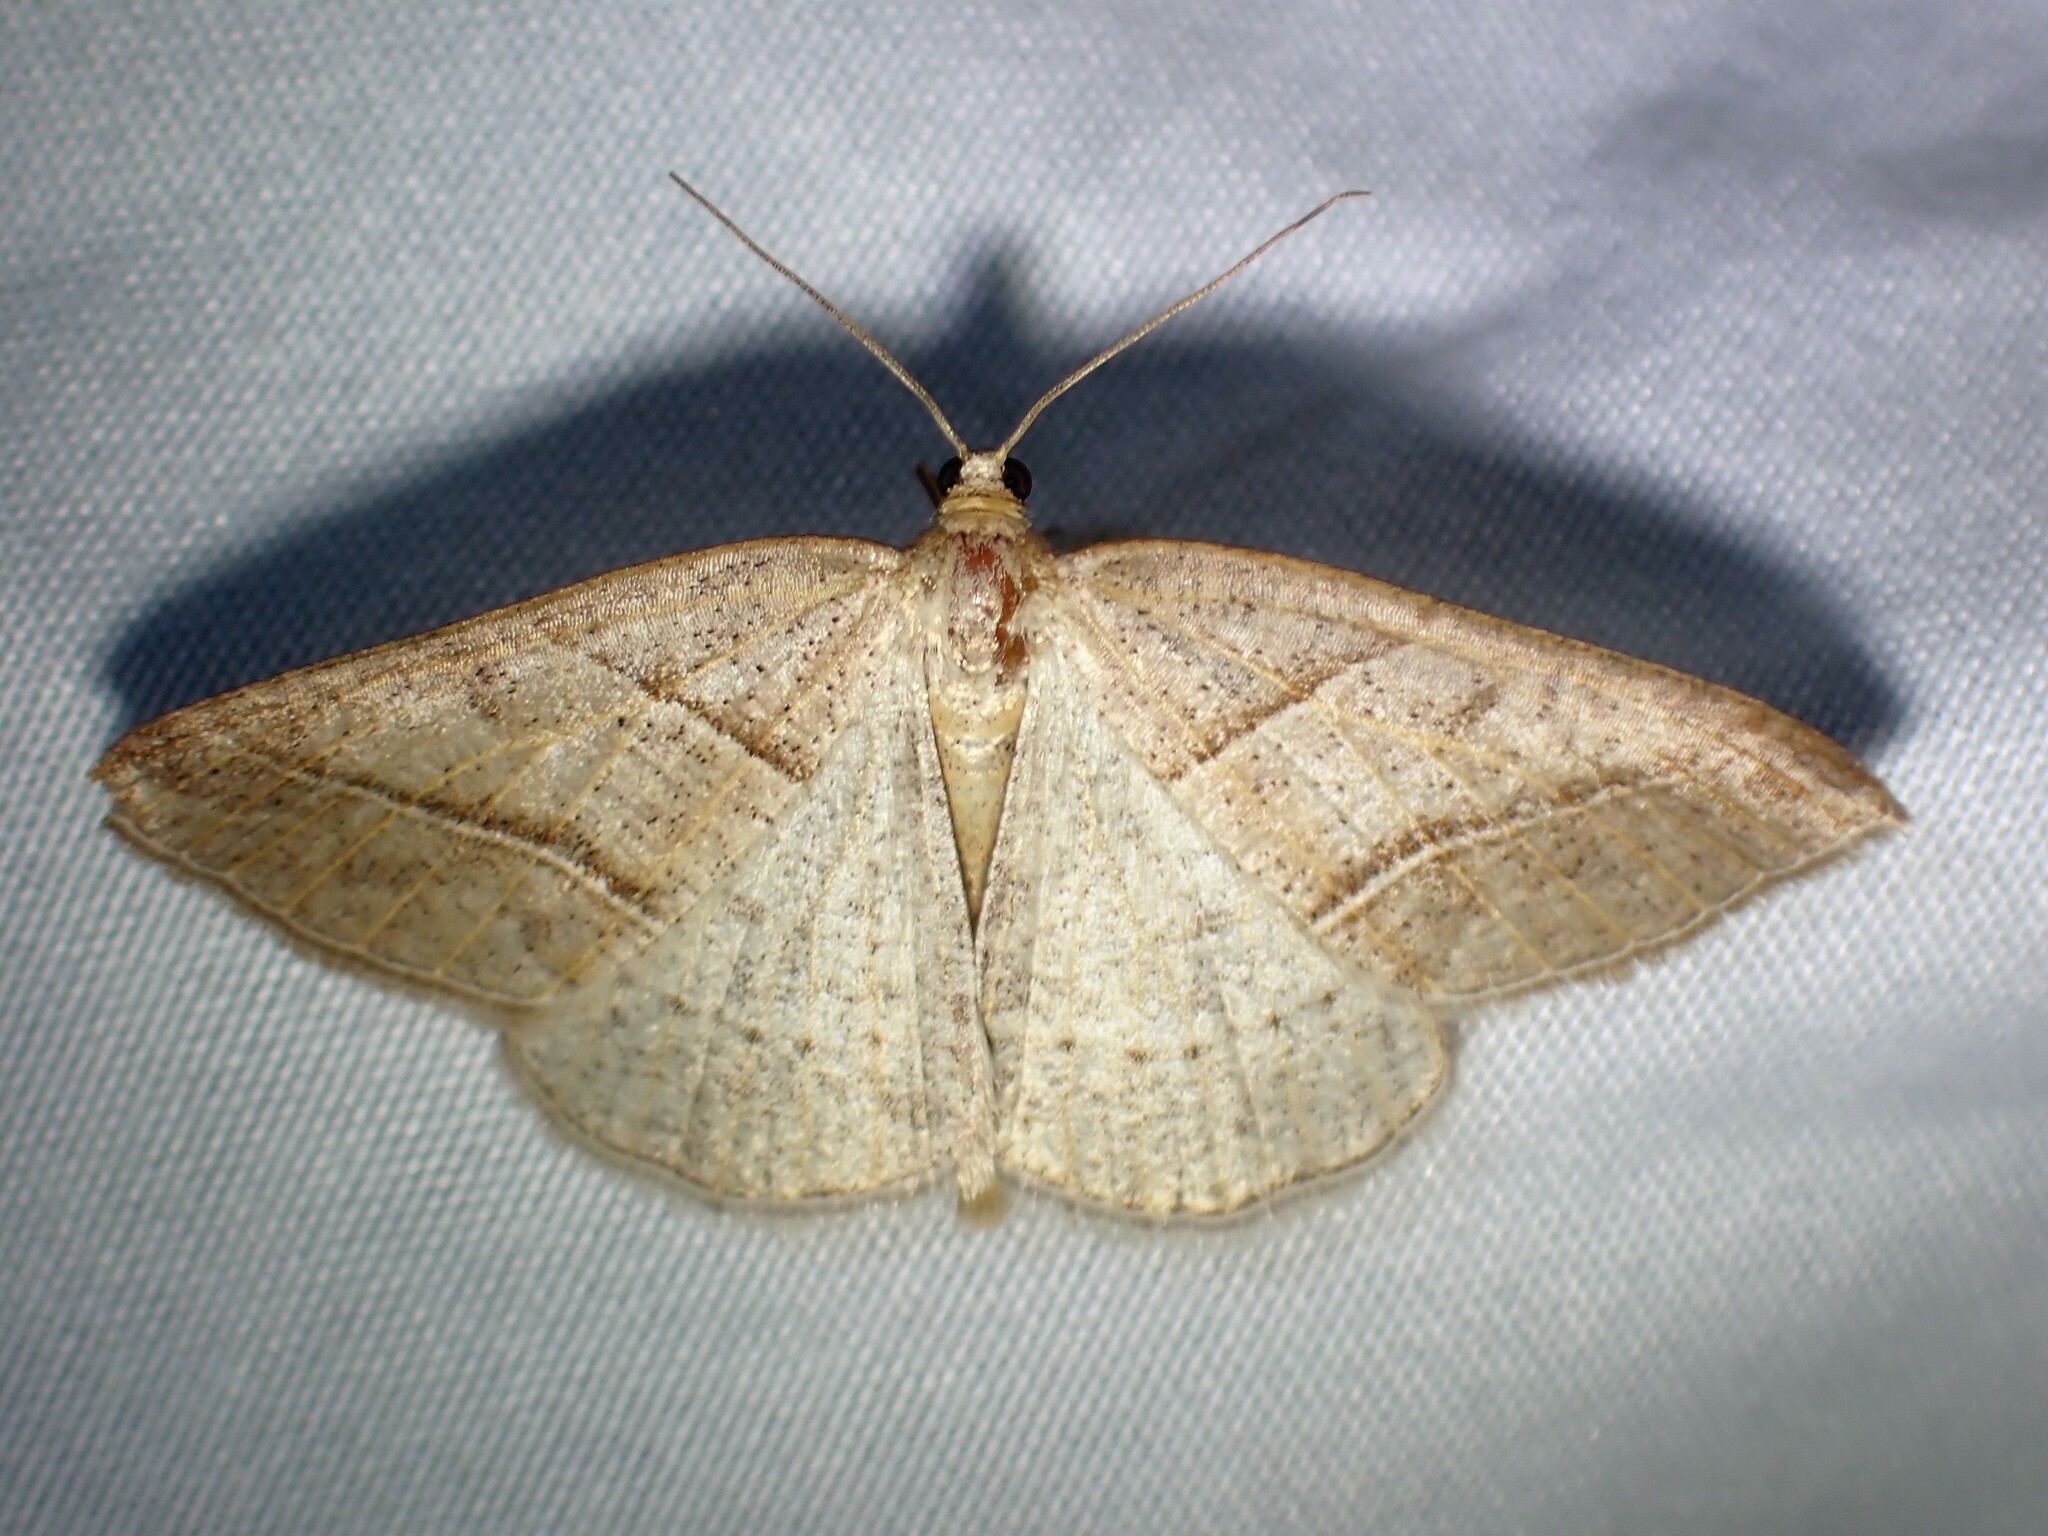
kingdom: Animalia
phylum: Arthropoda
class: Insecta
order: Lepidoptera
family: Pterophoridae
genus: Pterophorus
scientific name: Pterophorus Petrophora subaequaria
